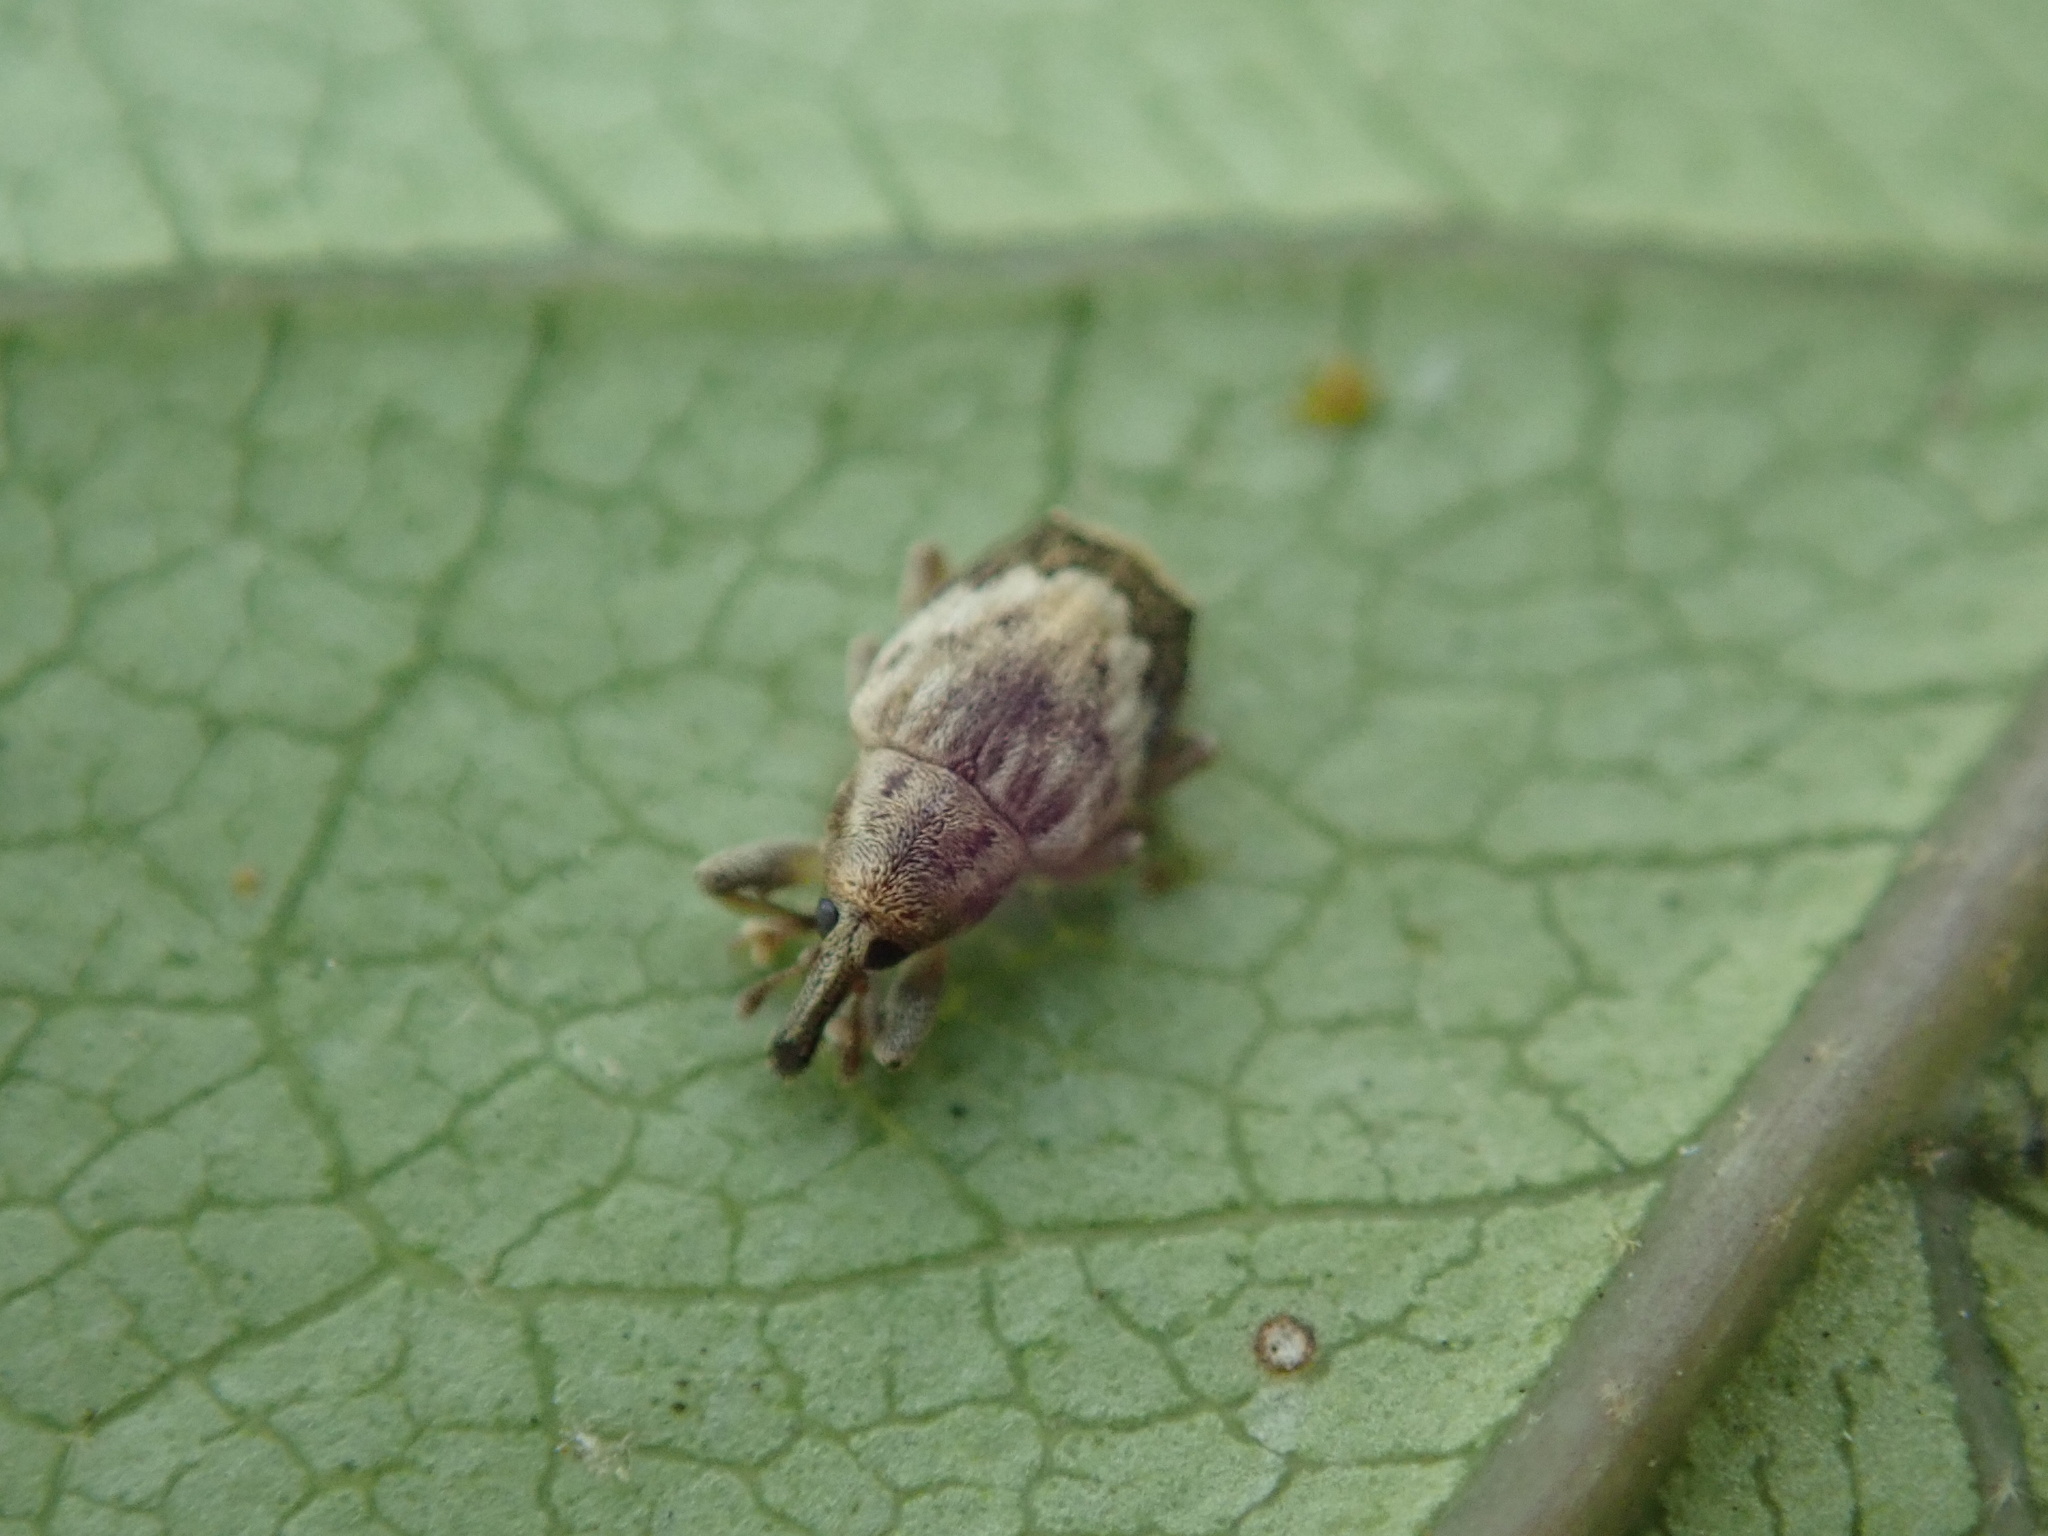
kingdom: Animalia
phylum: Arthropoda
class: Insecta
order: Coleoptera
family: Curculionidae
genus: Aneuma
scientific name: Aneuma compta
